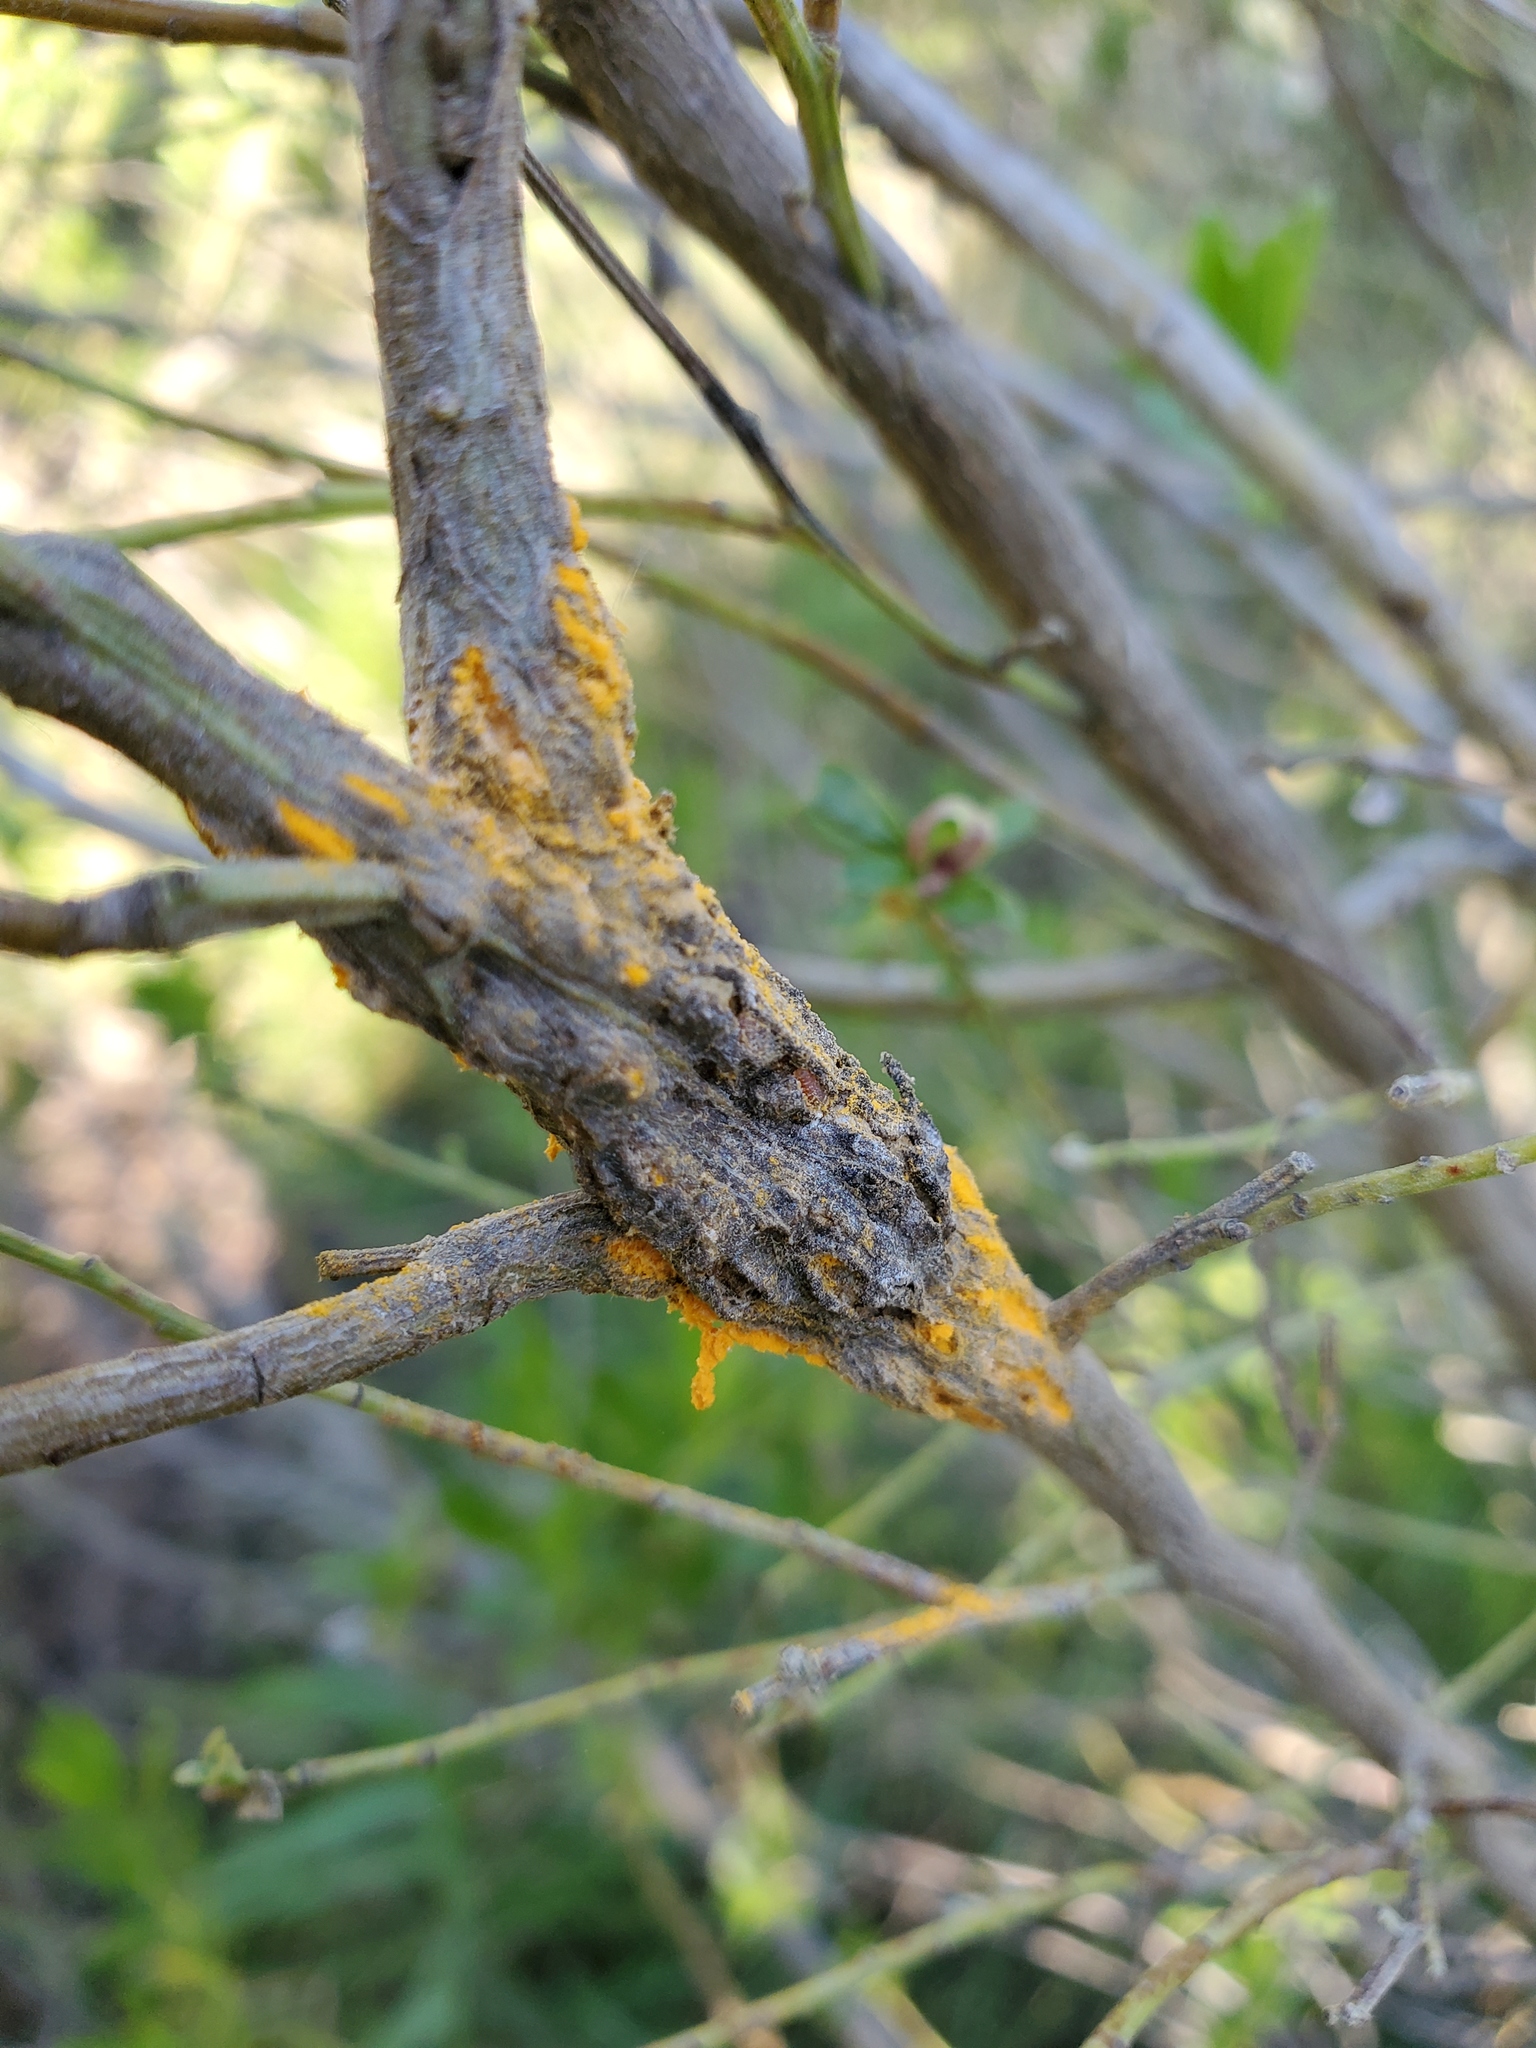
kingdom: Fungi
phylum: Basidiomycota
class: Pucciniomycetes
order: Pucciniales
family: Pucciniaceae
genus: Eriosporangium
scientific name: Eriosporangium evadens
